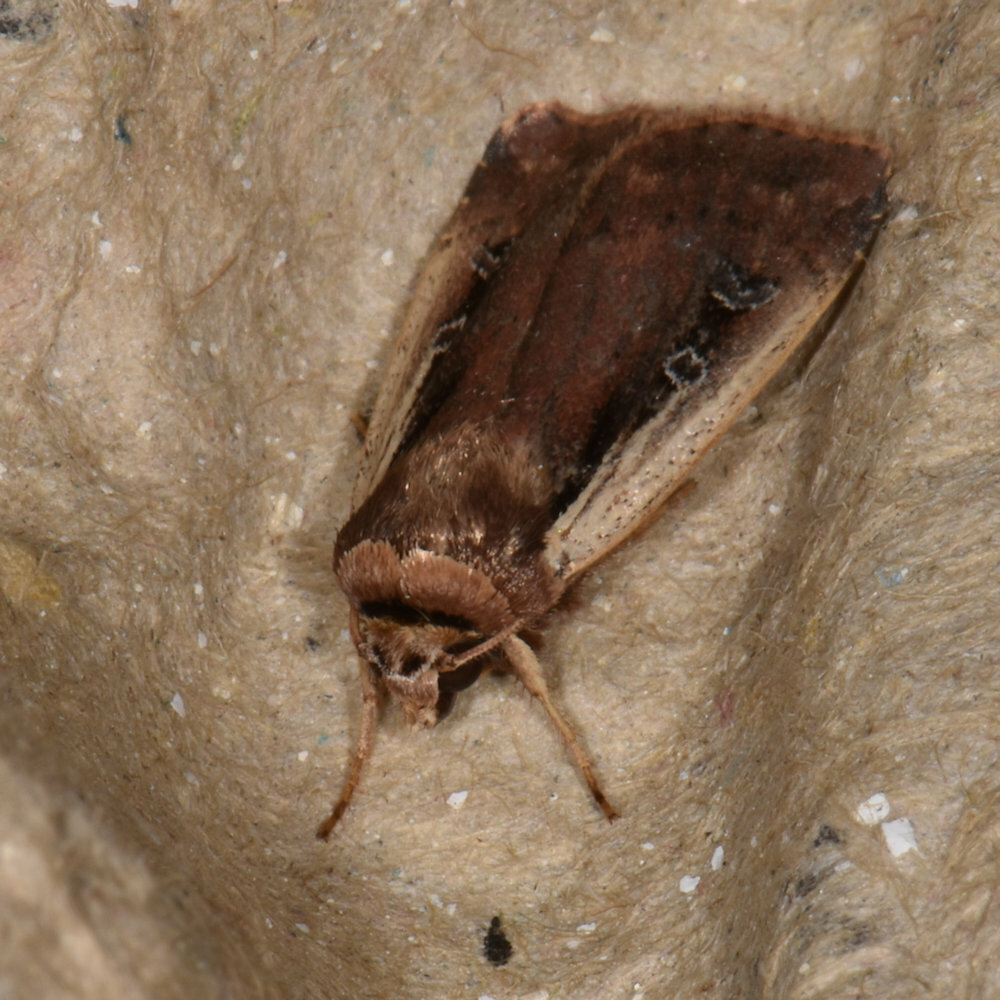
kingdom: Animalia
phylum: Arthropoda
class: Insecta
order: Lepidoptera
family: Noctuidae
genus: Ochropleura
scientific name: Ochropleura implecta
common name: Flame-shouldered dart
